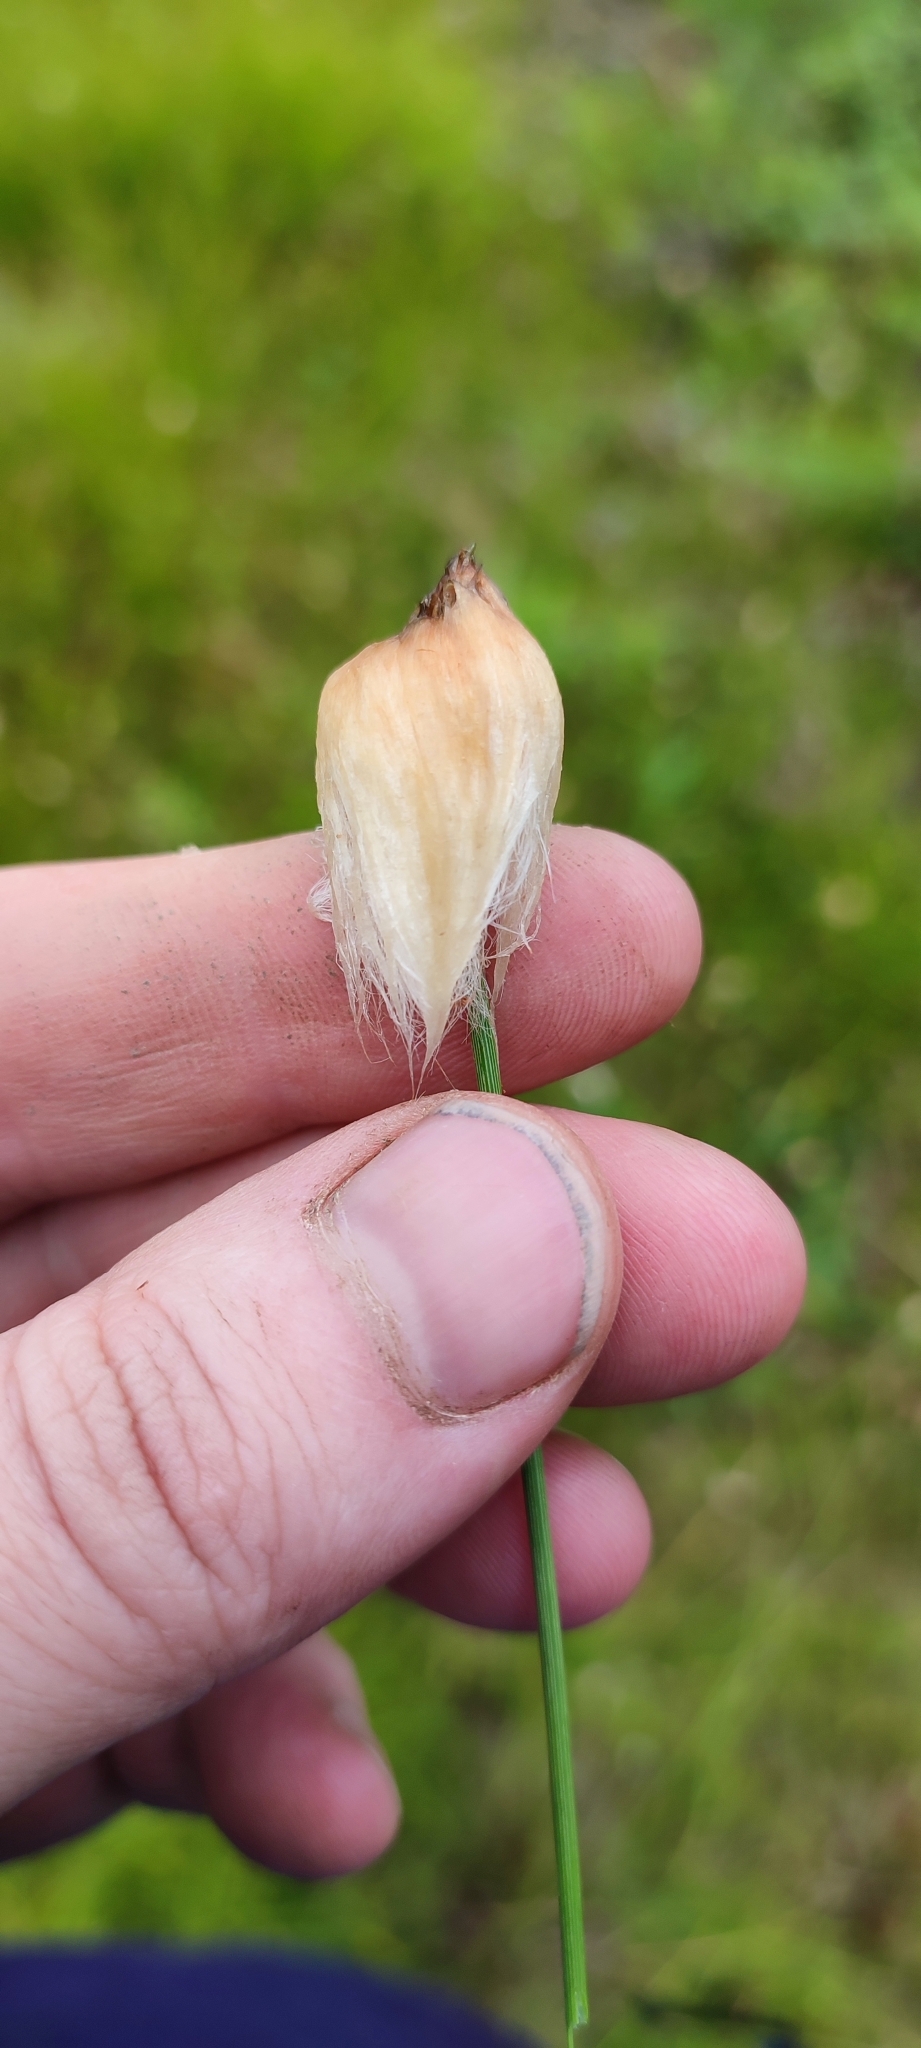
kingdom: Plantae
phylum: Tracheophyta
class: Liliopsida
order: Poales
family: Cyperaceae
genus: Eriophorum
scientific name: Eriophorum chamissonis
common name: Chamisso's cottongrass
